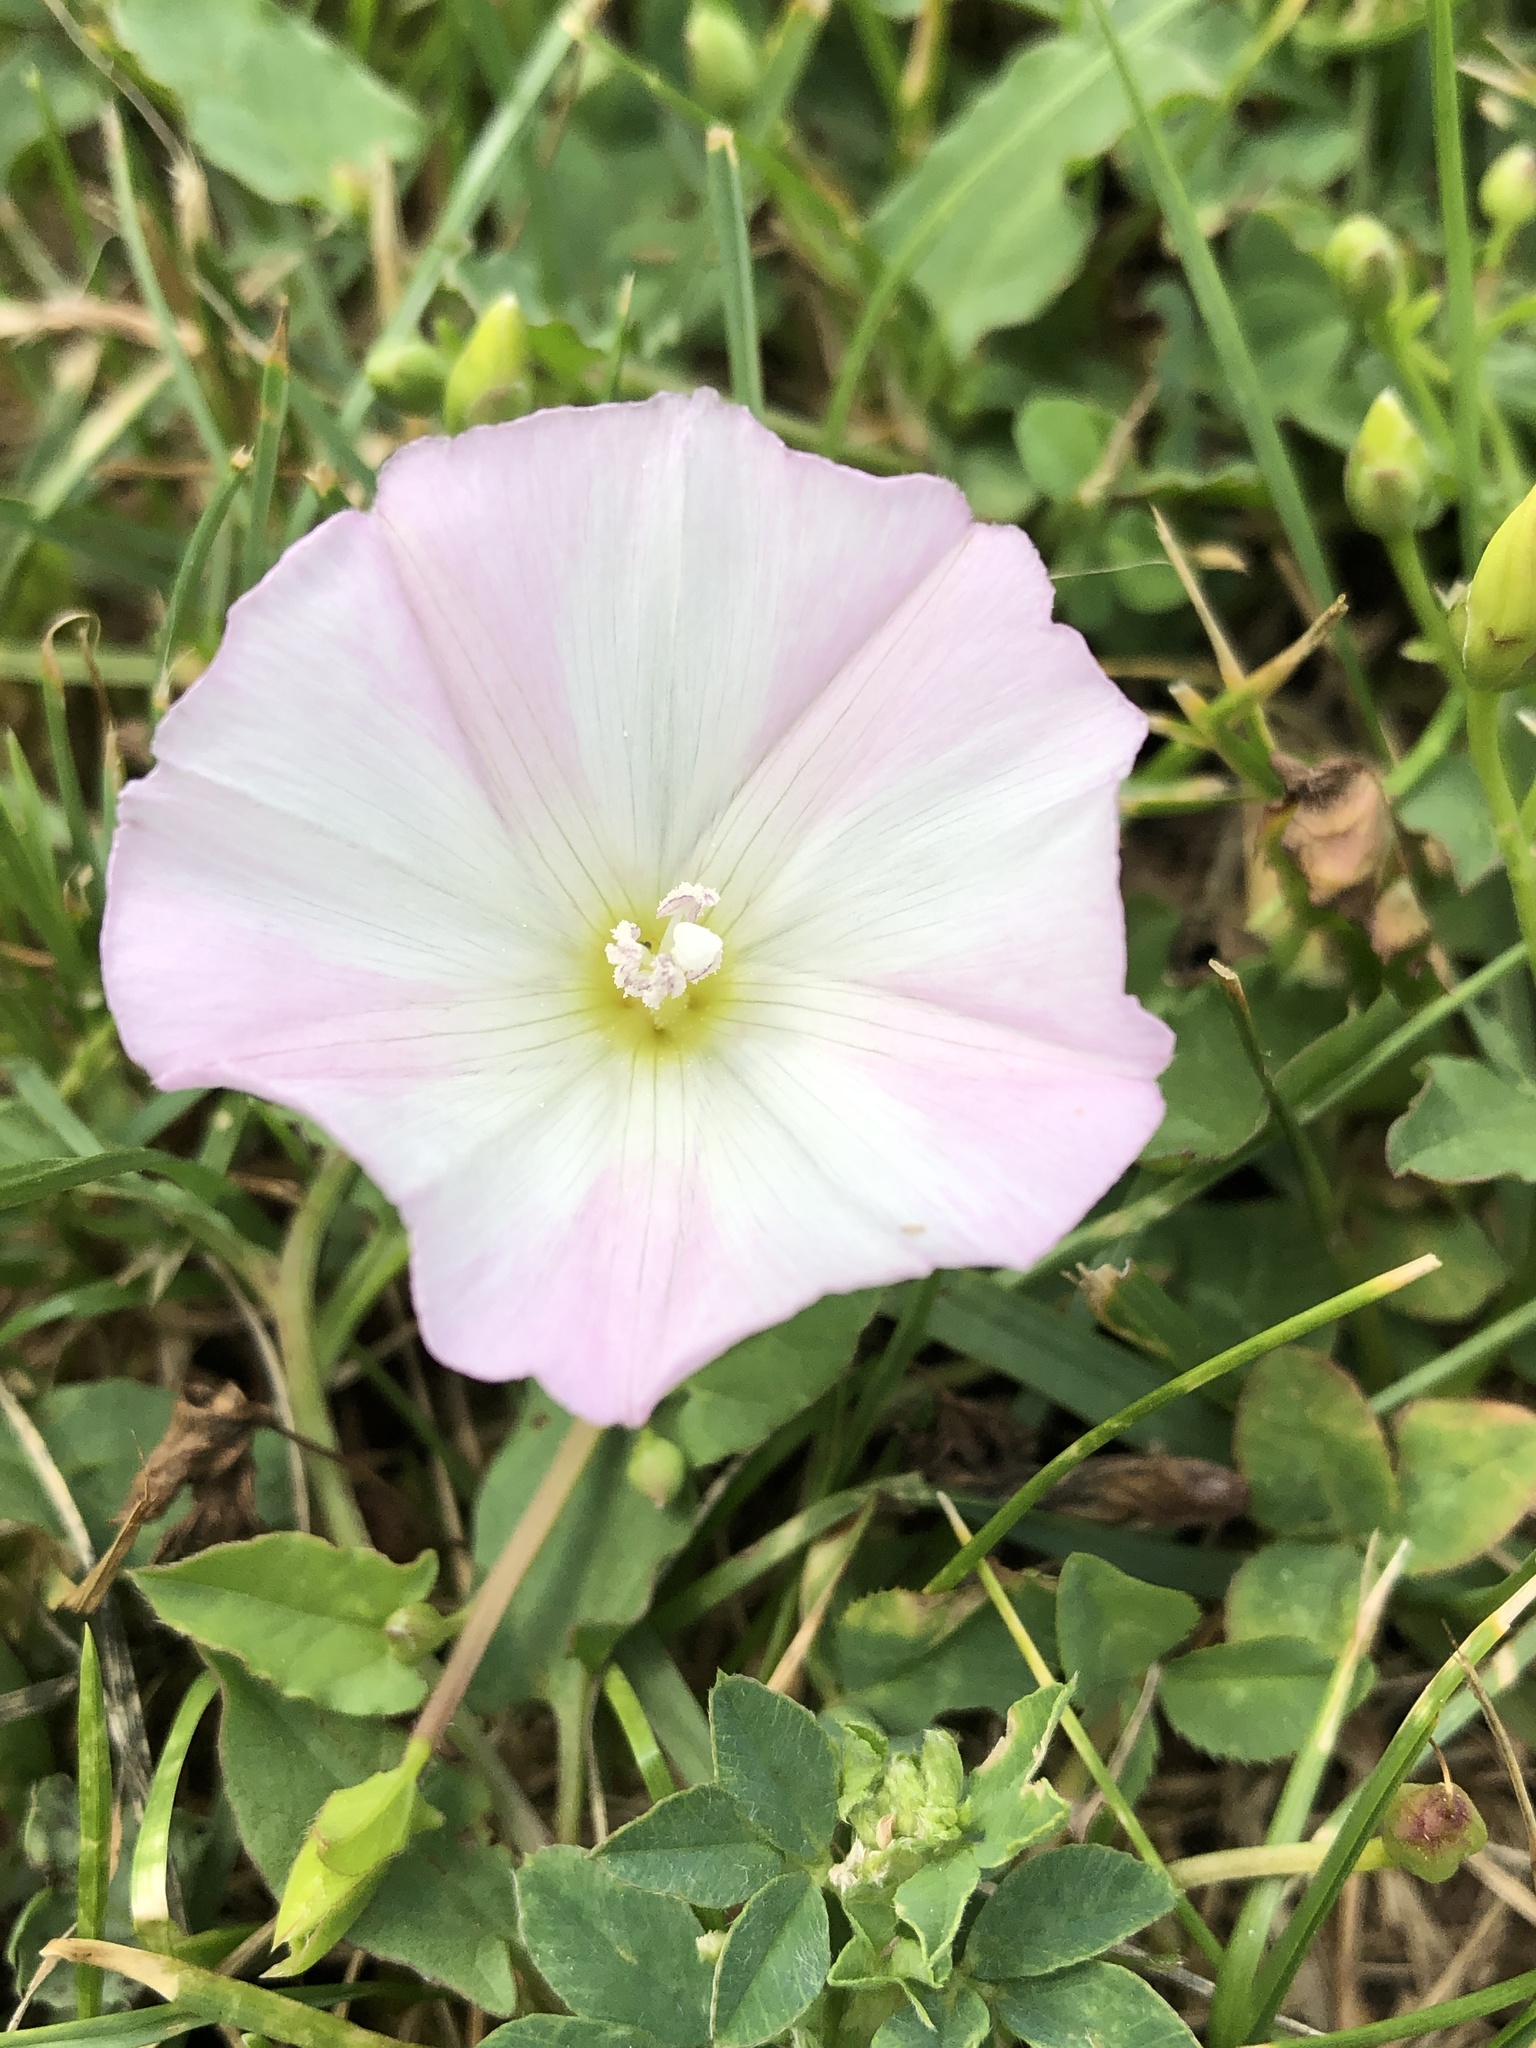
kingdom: Plantae
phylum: Tracheophyta
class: Magnoliopsida
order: Solanales
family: Convolvulaceae
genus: Convolvulus
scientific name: Convolvulus arvensis
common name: Field bindweed
